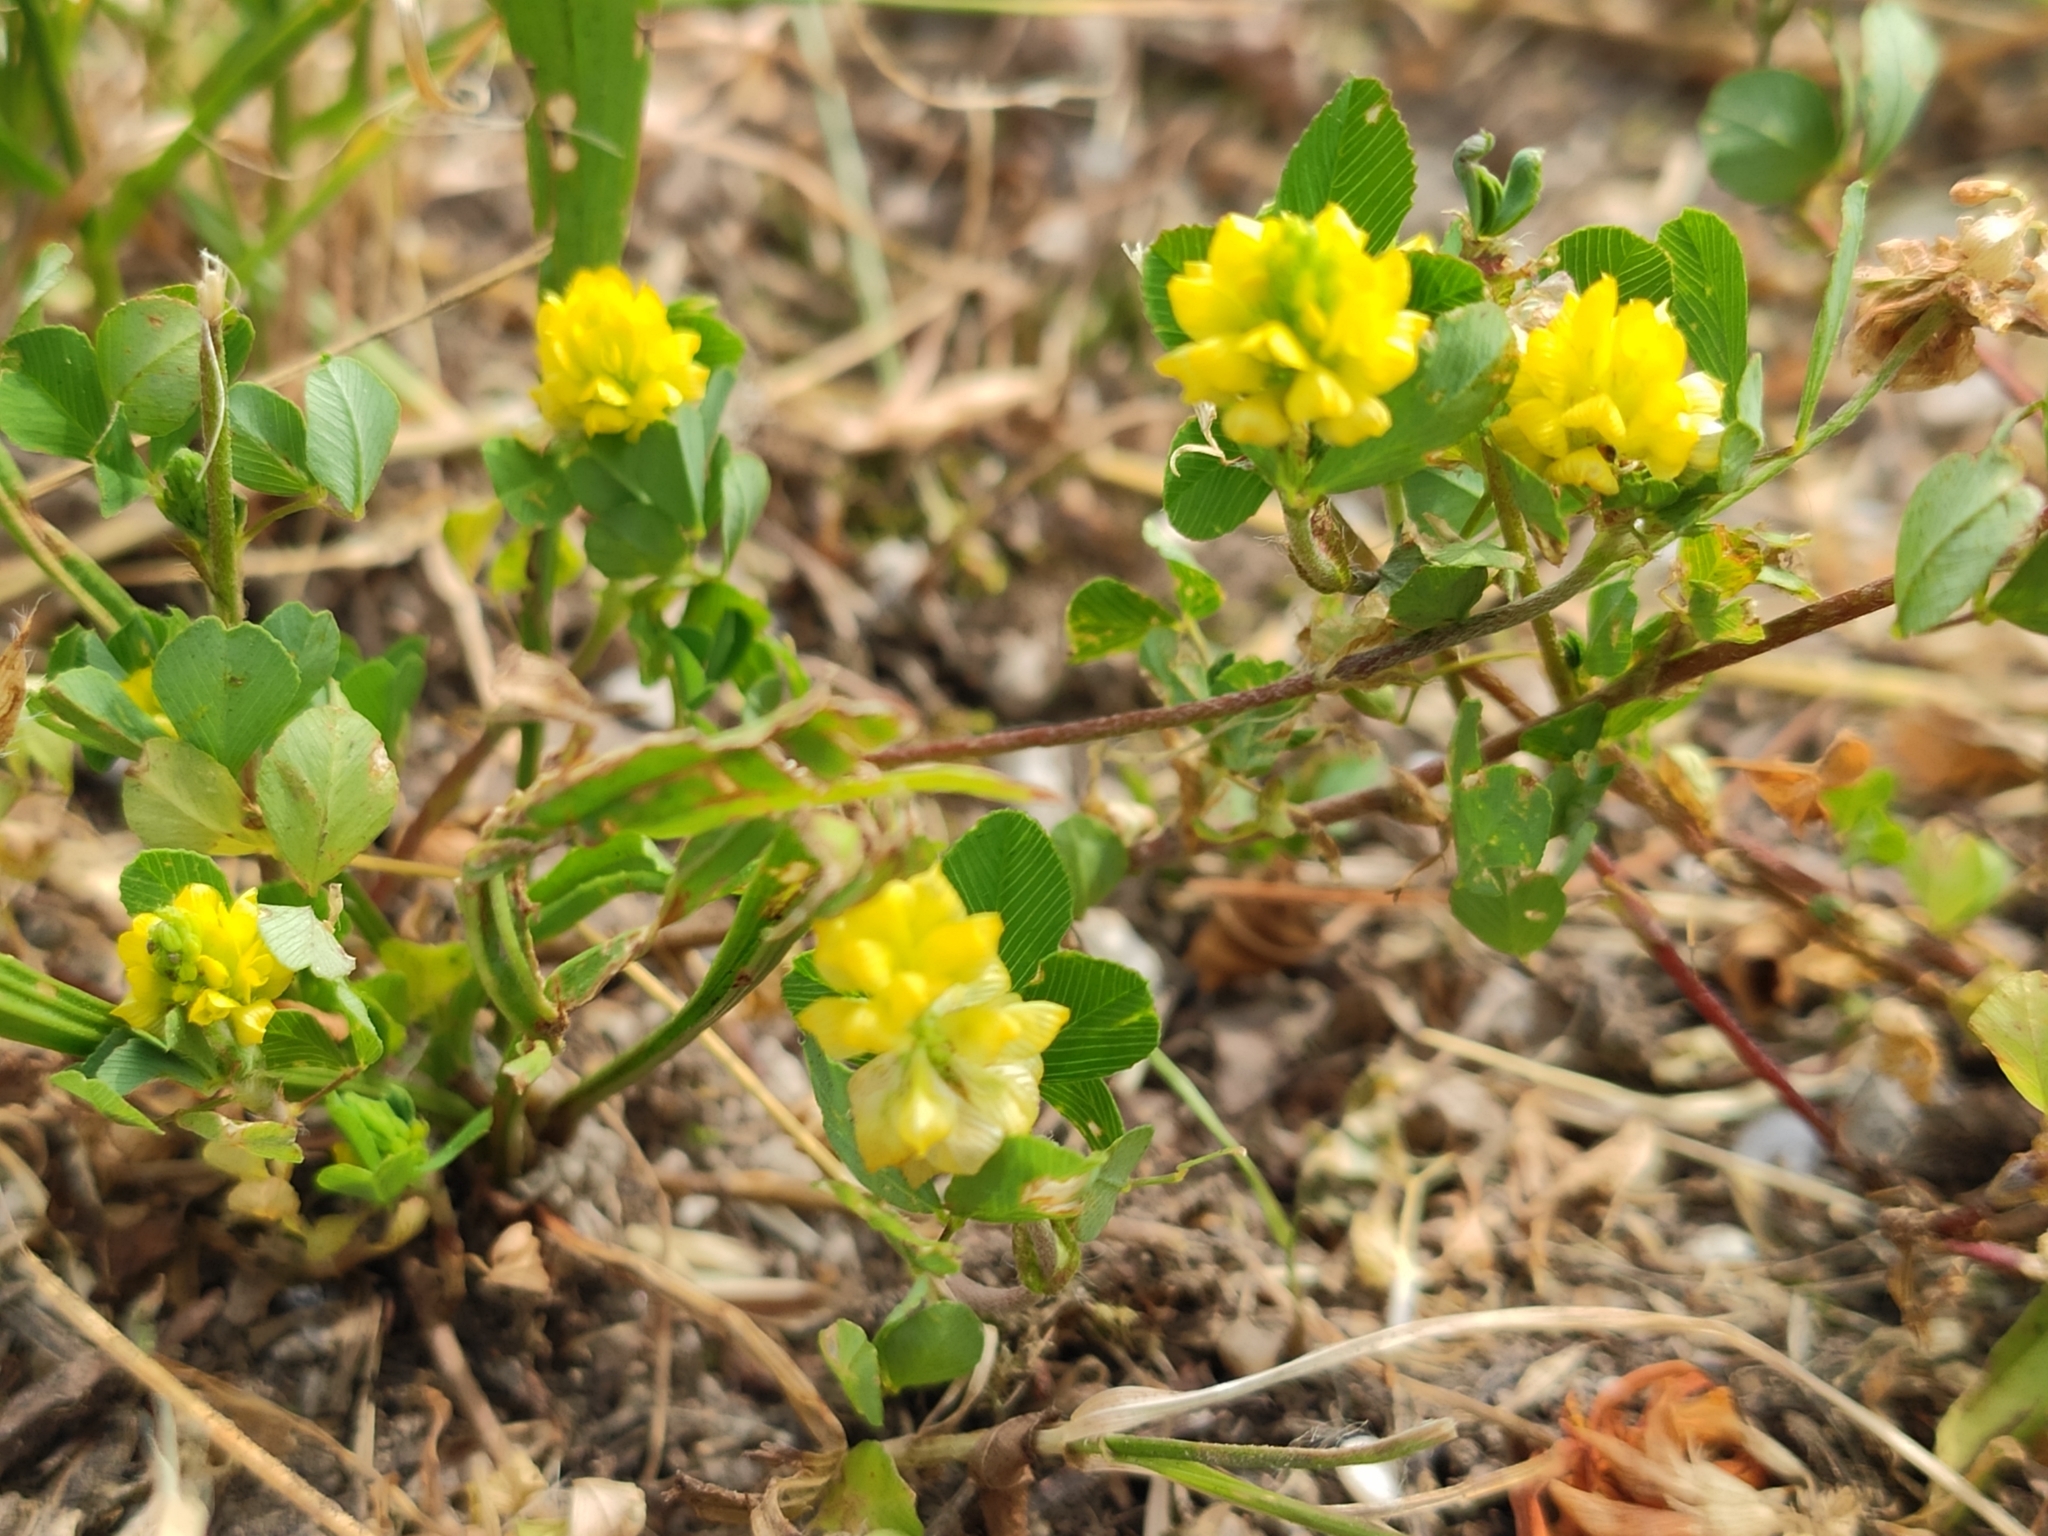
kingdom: Plantae
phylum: Tracheophyta
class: Magnoliopsida
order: Fabales
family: Fabaceae
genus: Trifolium
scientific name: Trifolium campestre
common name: Field clover
